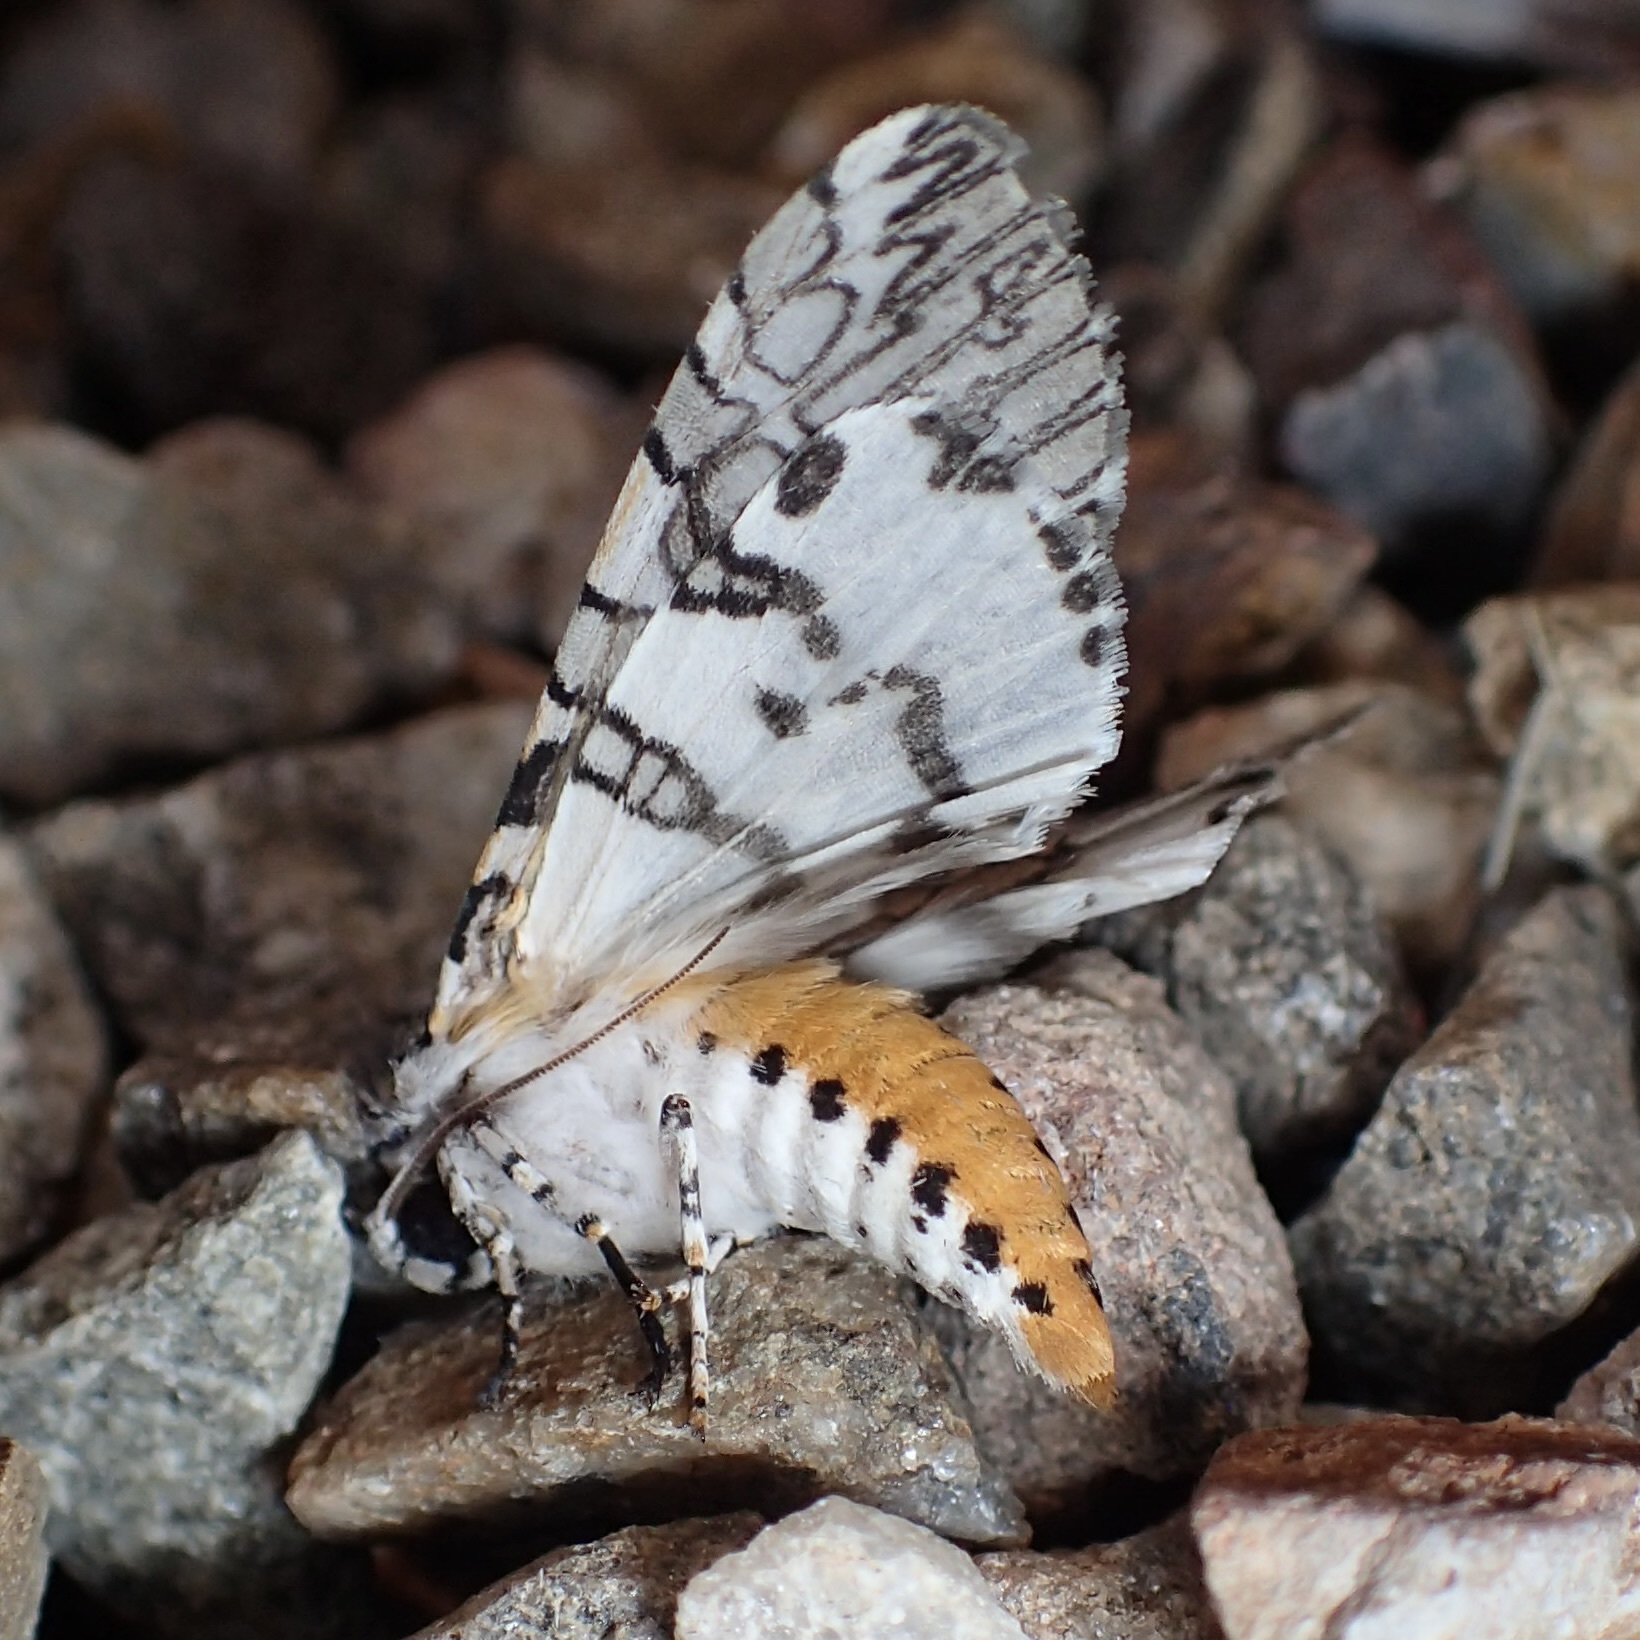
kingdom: Animalia
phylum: Arthropoda
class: Insecta
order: Lepidoptera
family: Erebidae
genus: Hypercompe
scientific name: Hypercompe suffusa
